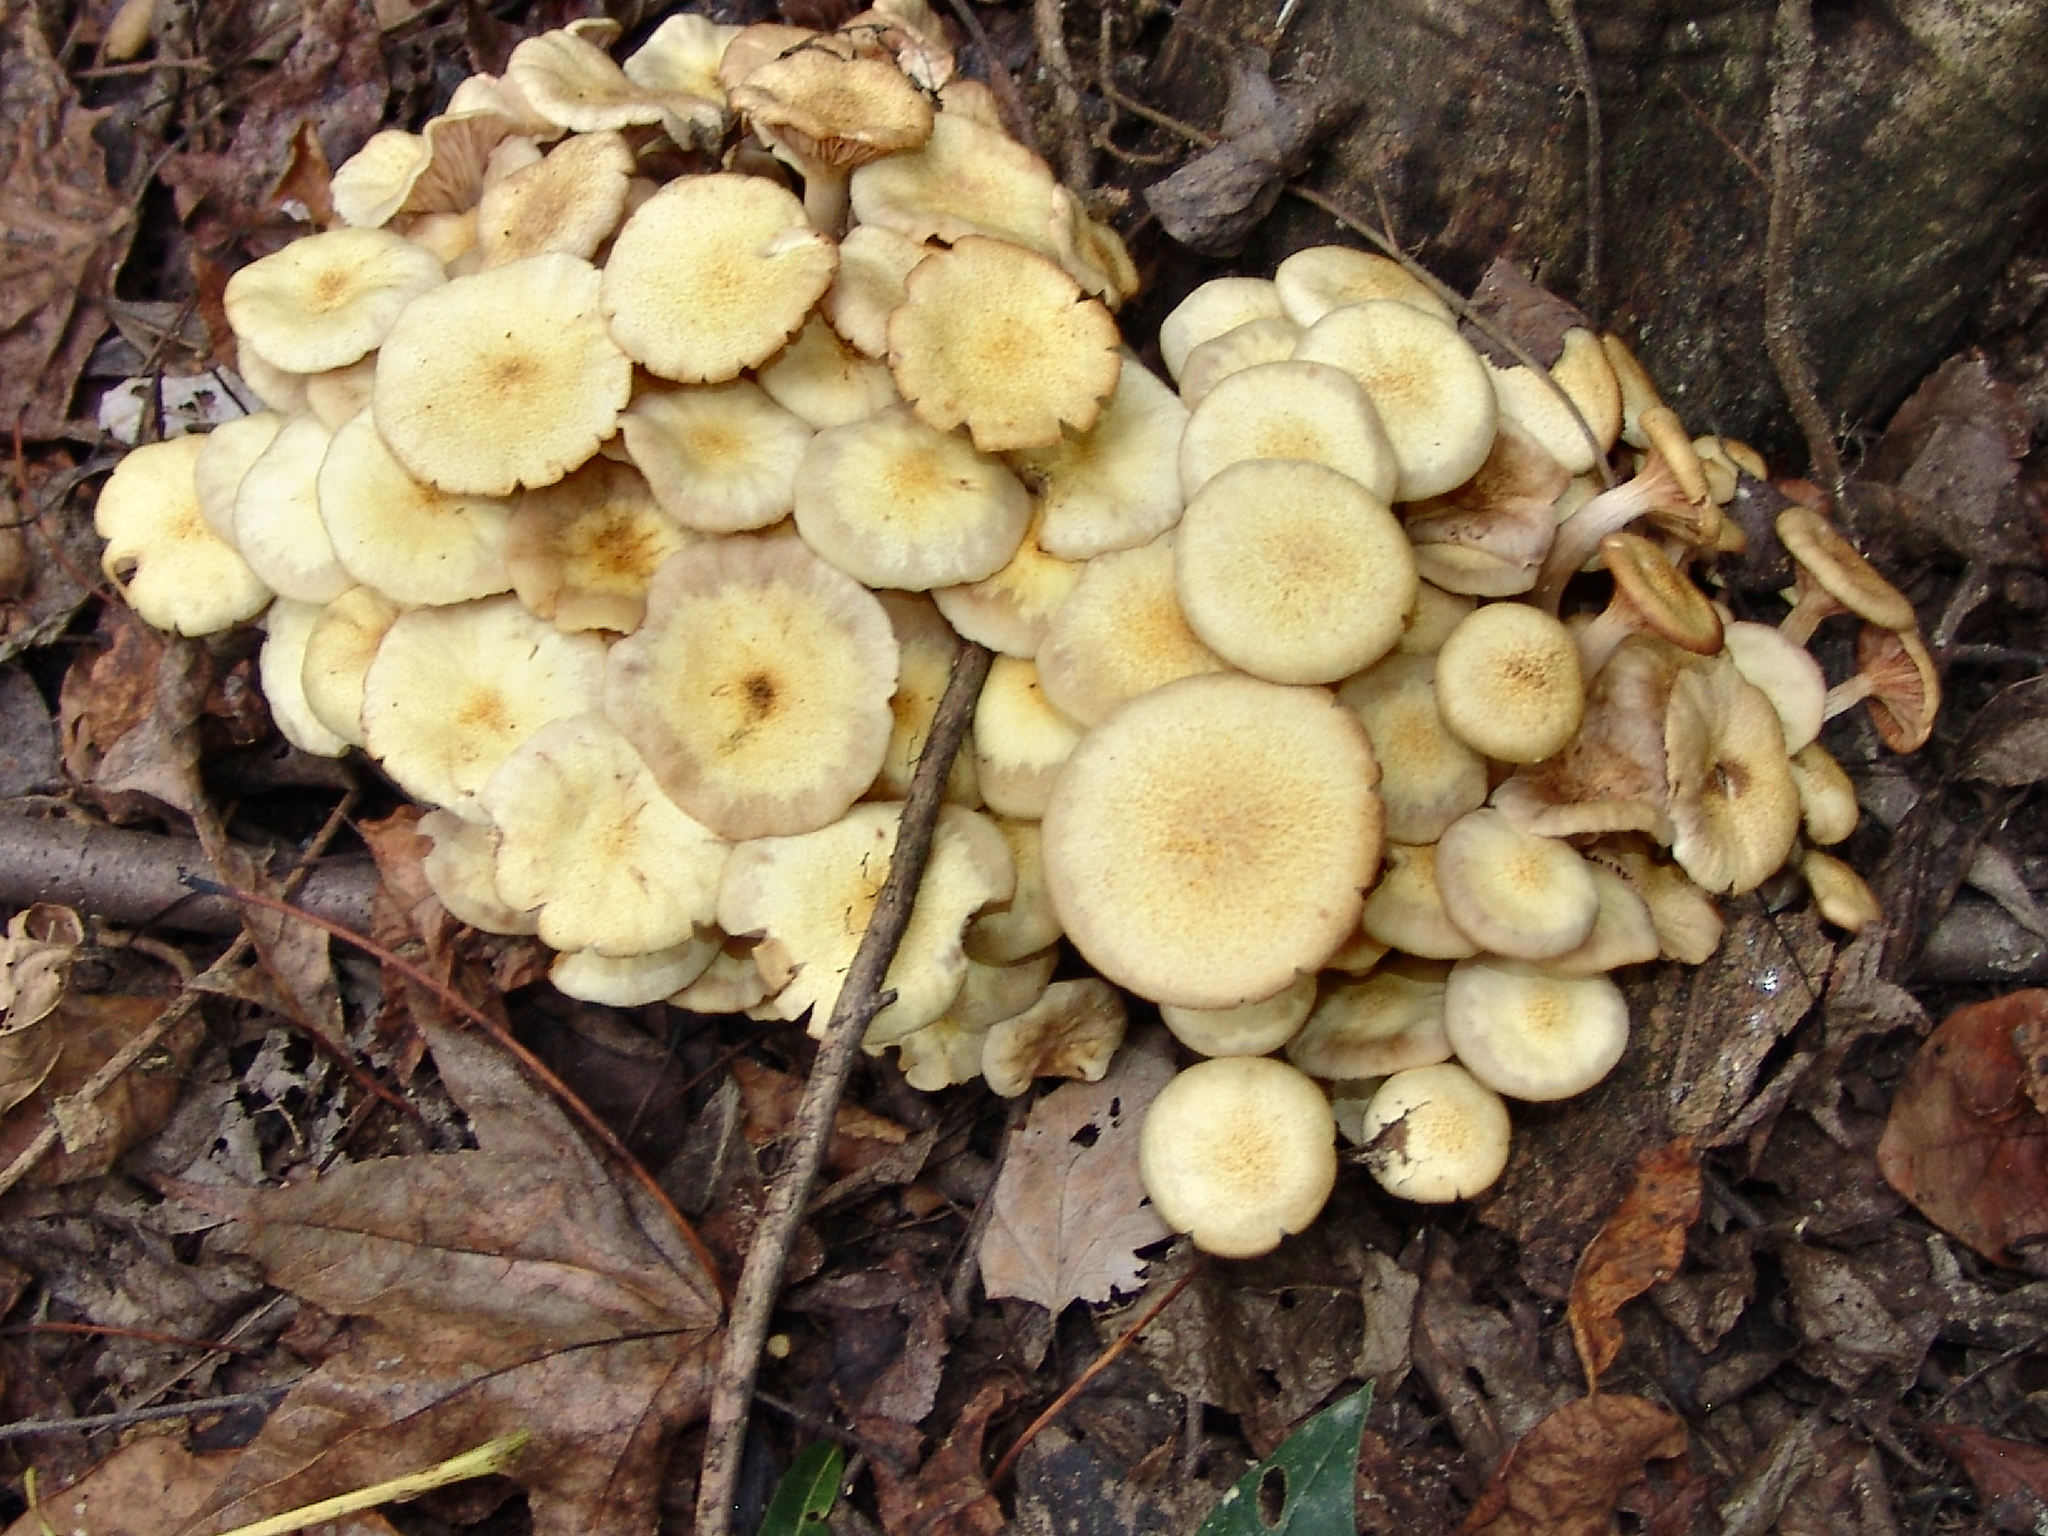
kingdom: Fungi
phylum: Basidiomycota
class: Agaricomycetes
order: Agaricales
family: Physalacriaceae
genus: Desarmillaria
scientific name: Desarmillaria caespitosa
